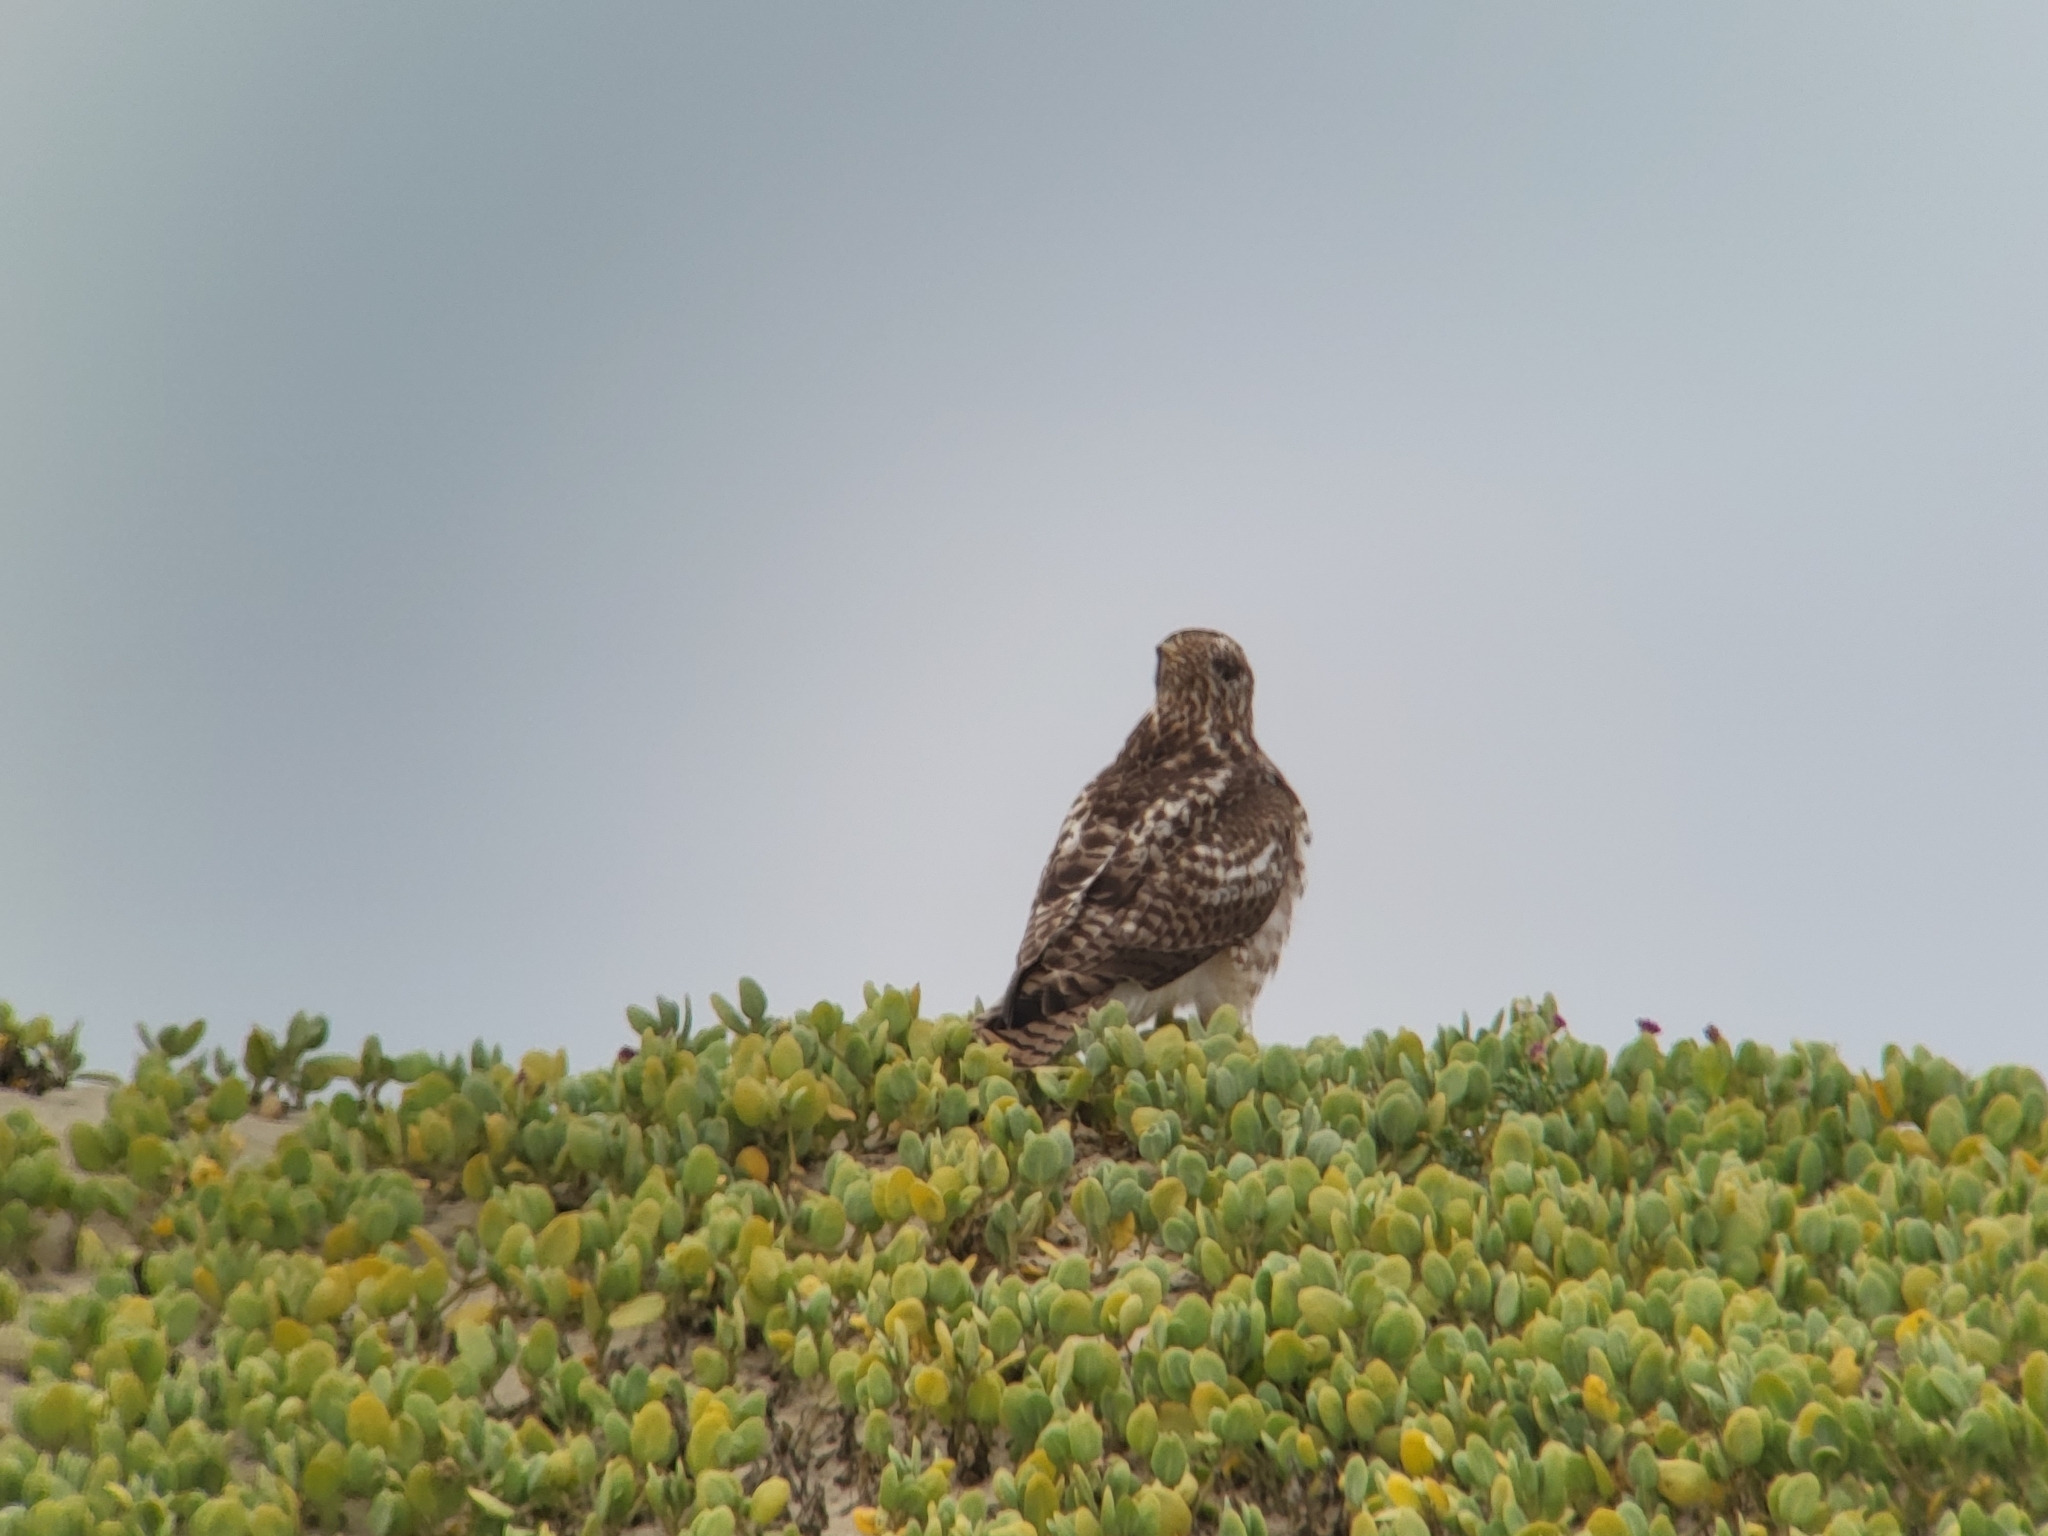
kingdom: Animalia
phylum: Chordata
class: Aves
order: Accipitriformes
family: Accipitridae
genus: Buteo
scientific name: Buteo jamaicensis
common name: Red-tailed hawk
